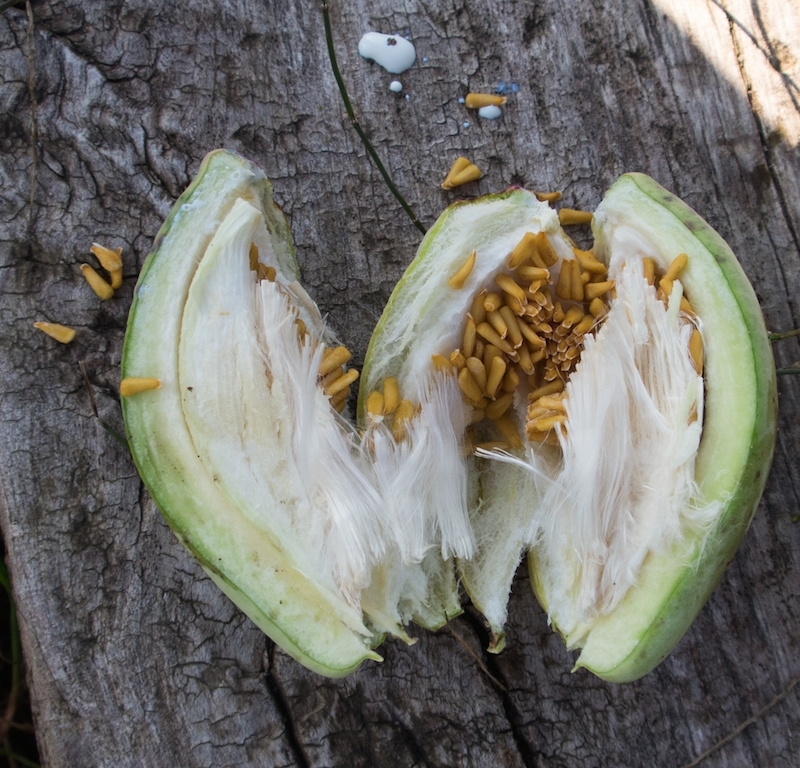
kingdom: Plantae
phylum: Tracheophyta
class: Magnoliopsida
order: Gentianales
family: Apocynaceae
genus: Araujia
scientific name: Araujia sericifera
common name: White bladderflower
